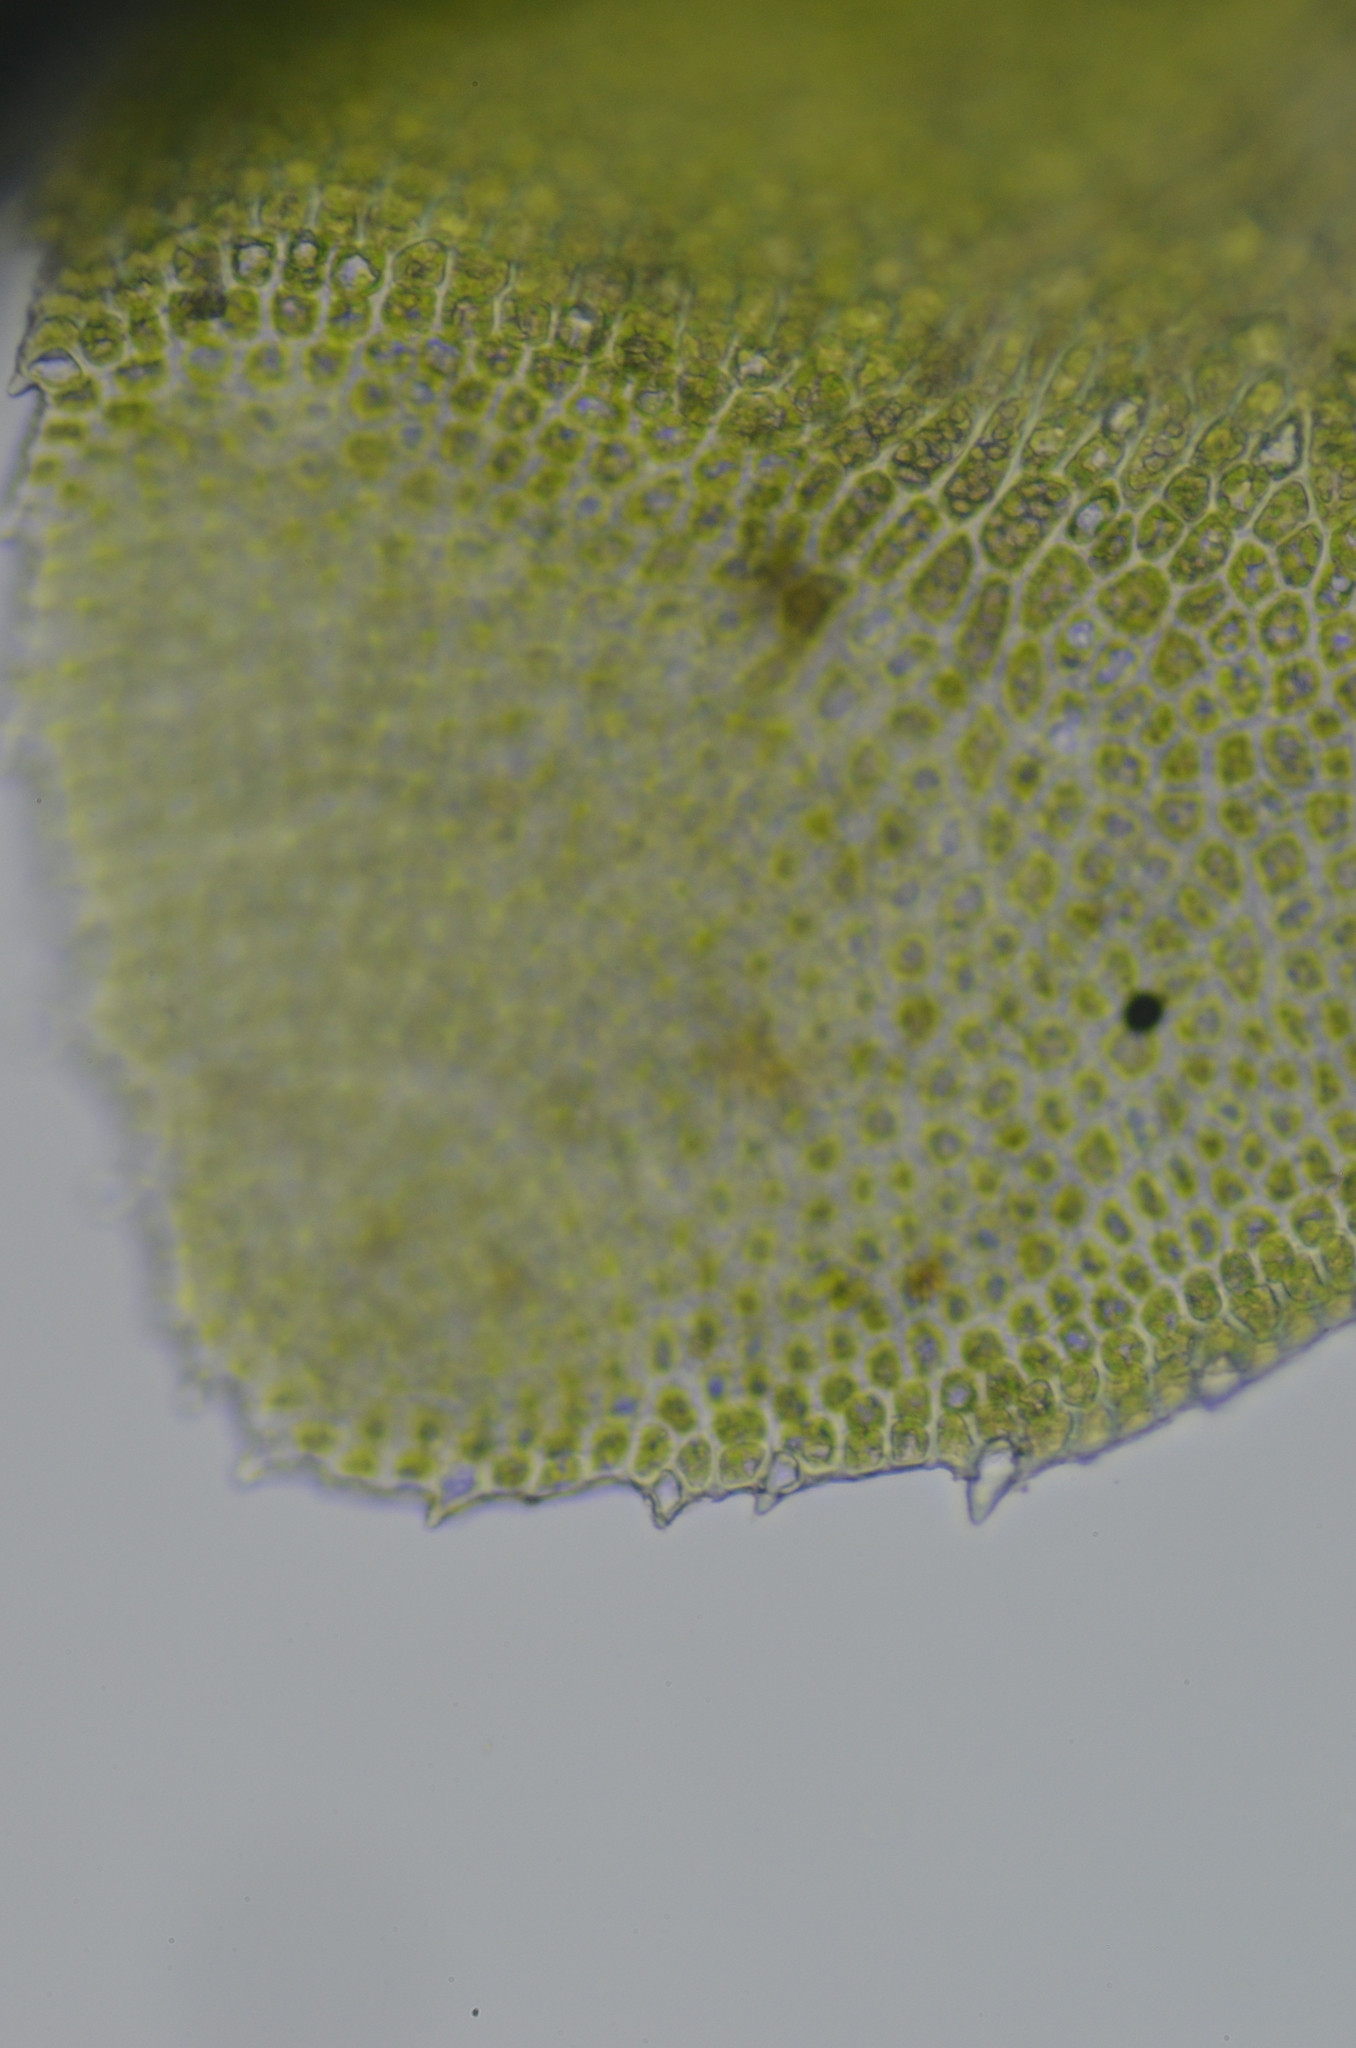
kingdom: Plantae
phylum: Marchantiophyta
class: Jungermanniopsida
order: Jungermanniales
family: Scapaniaceae
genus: Diplophyllum
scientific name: Diplophyllum albicans
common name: White earwort
